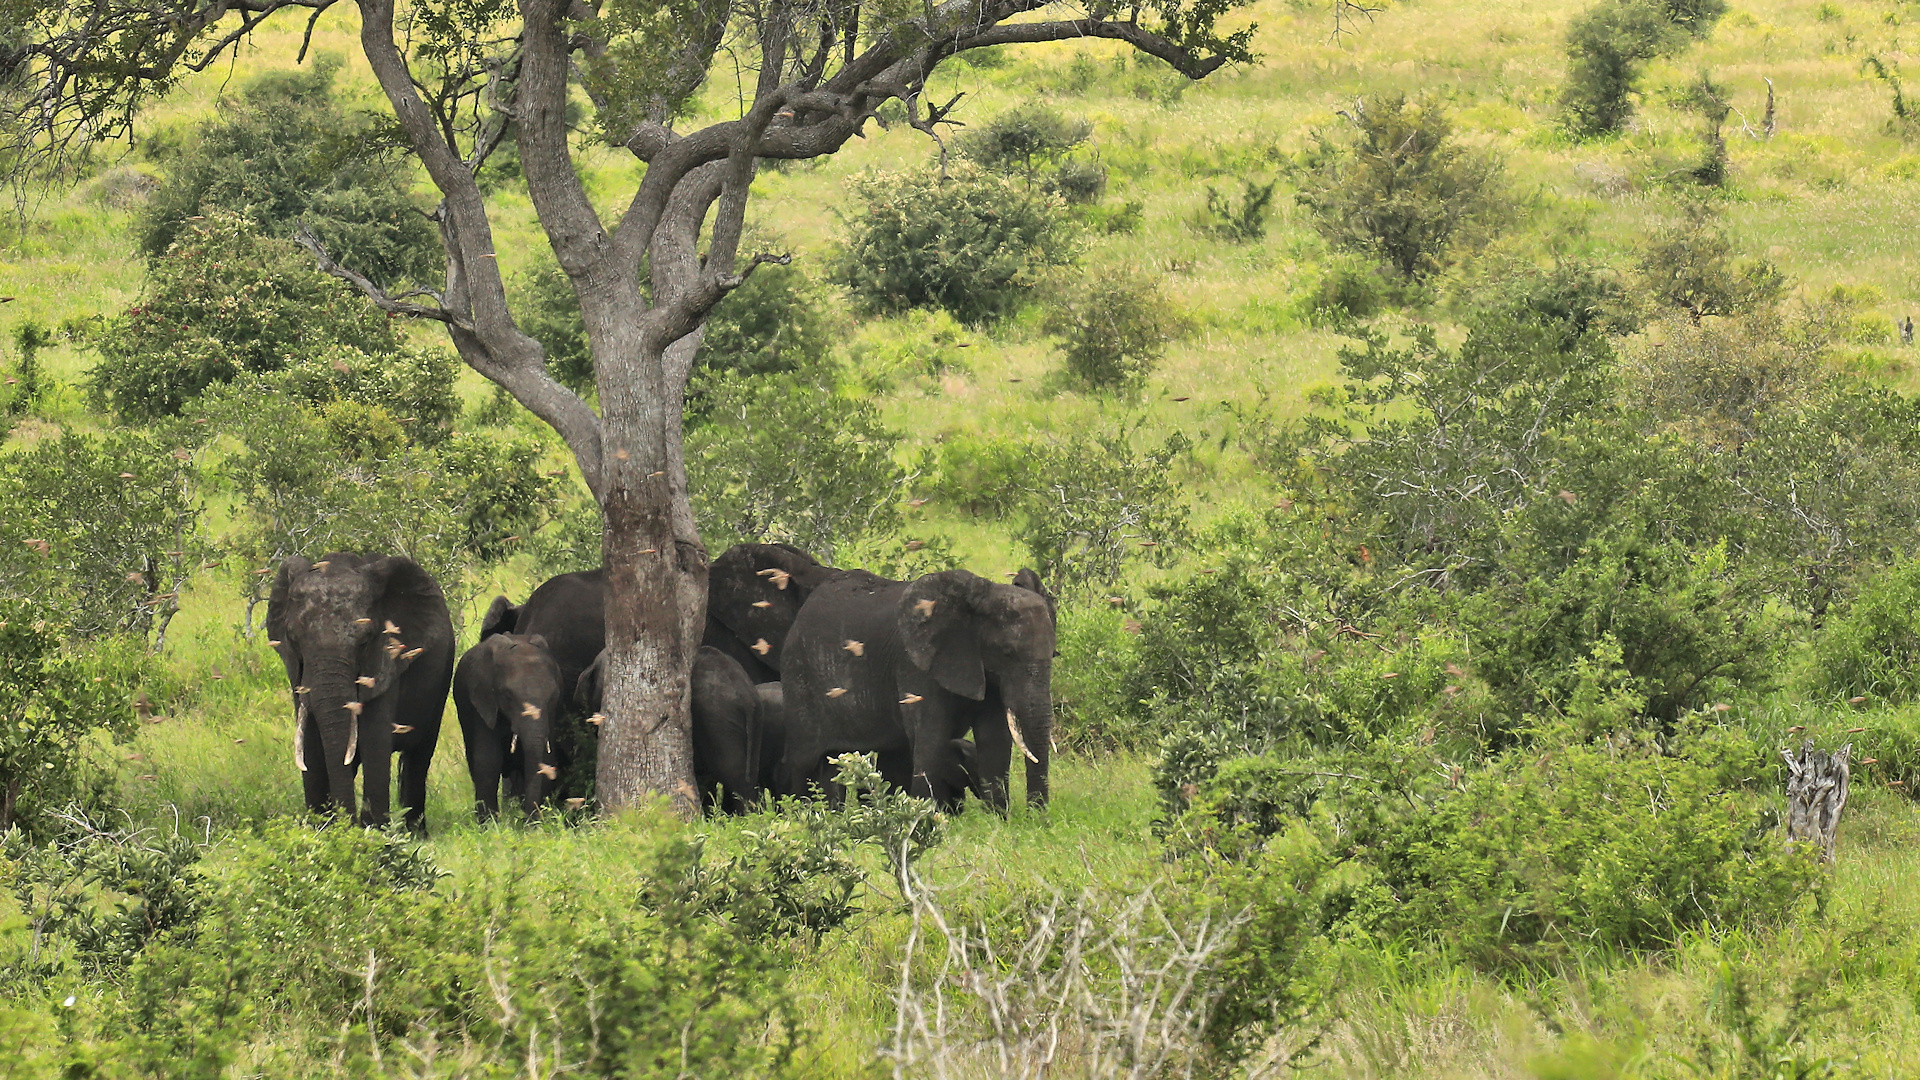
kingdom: Animalia
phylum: Chordata
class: Mammalia
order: Proboscidea
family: Elephantidae
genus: Loxodonta
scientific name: Loxodonta africana
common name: African elephant
